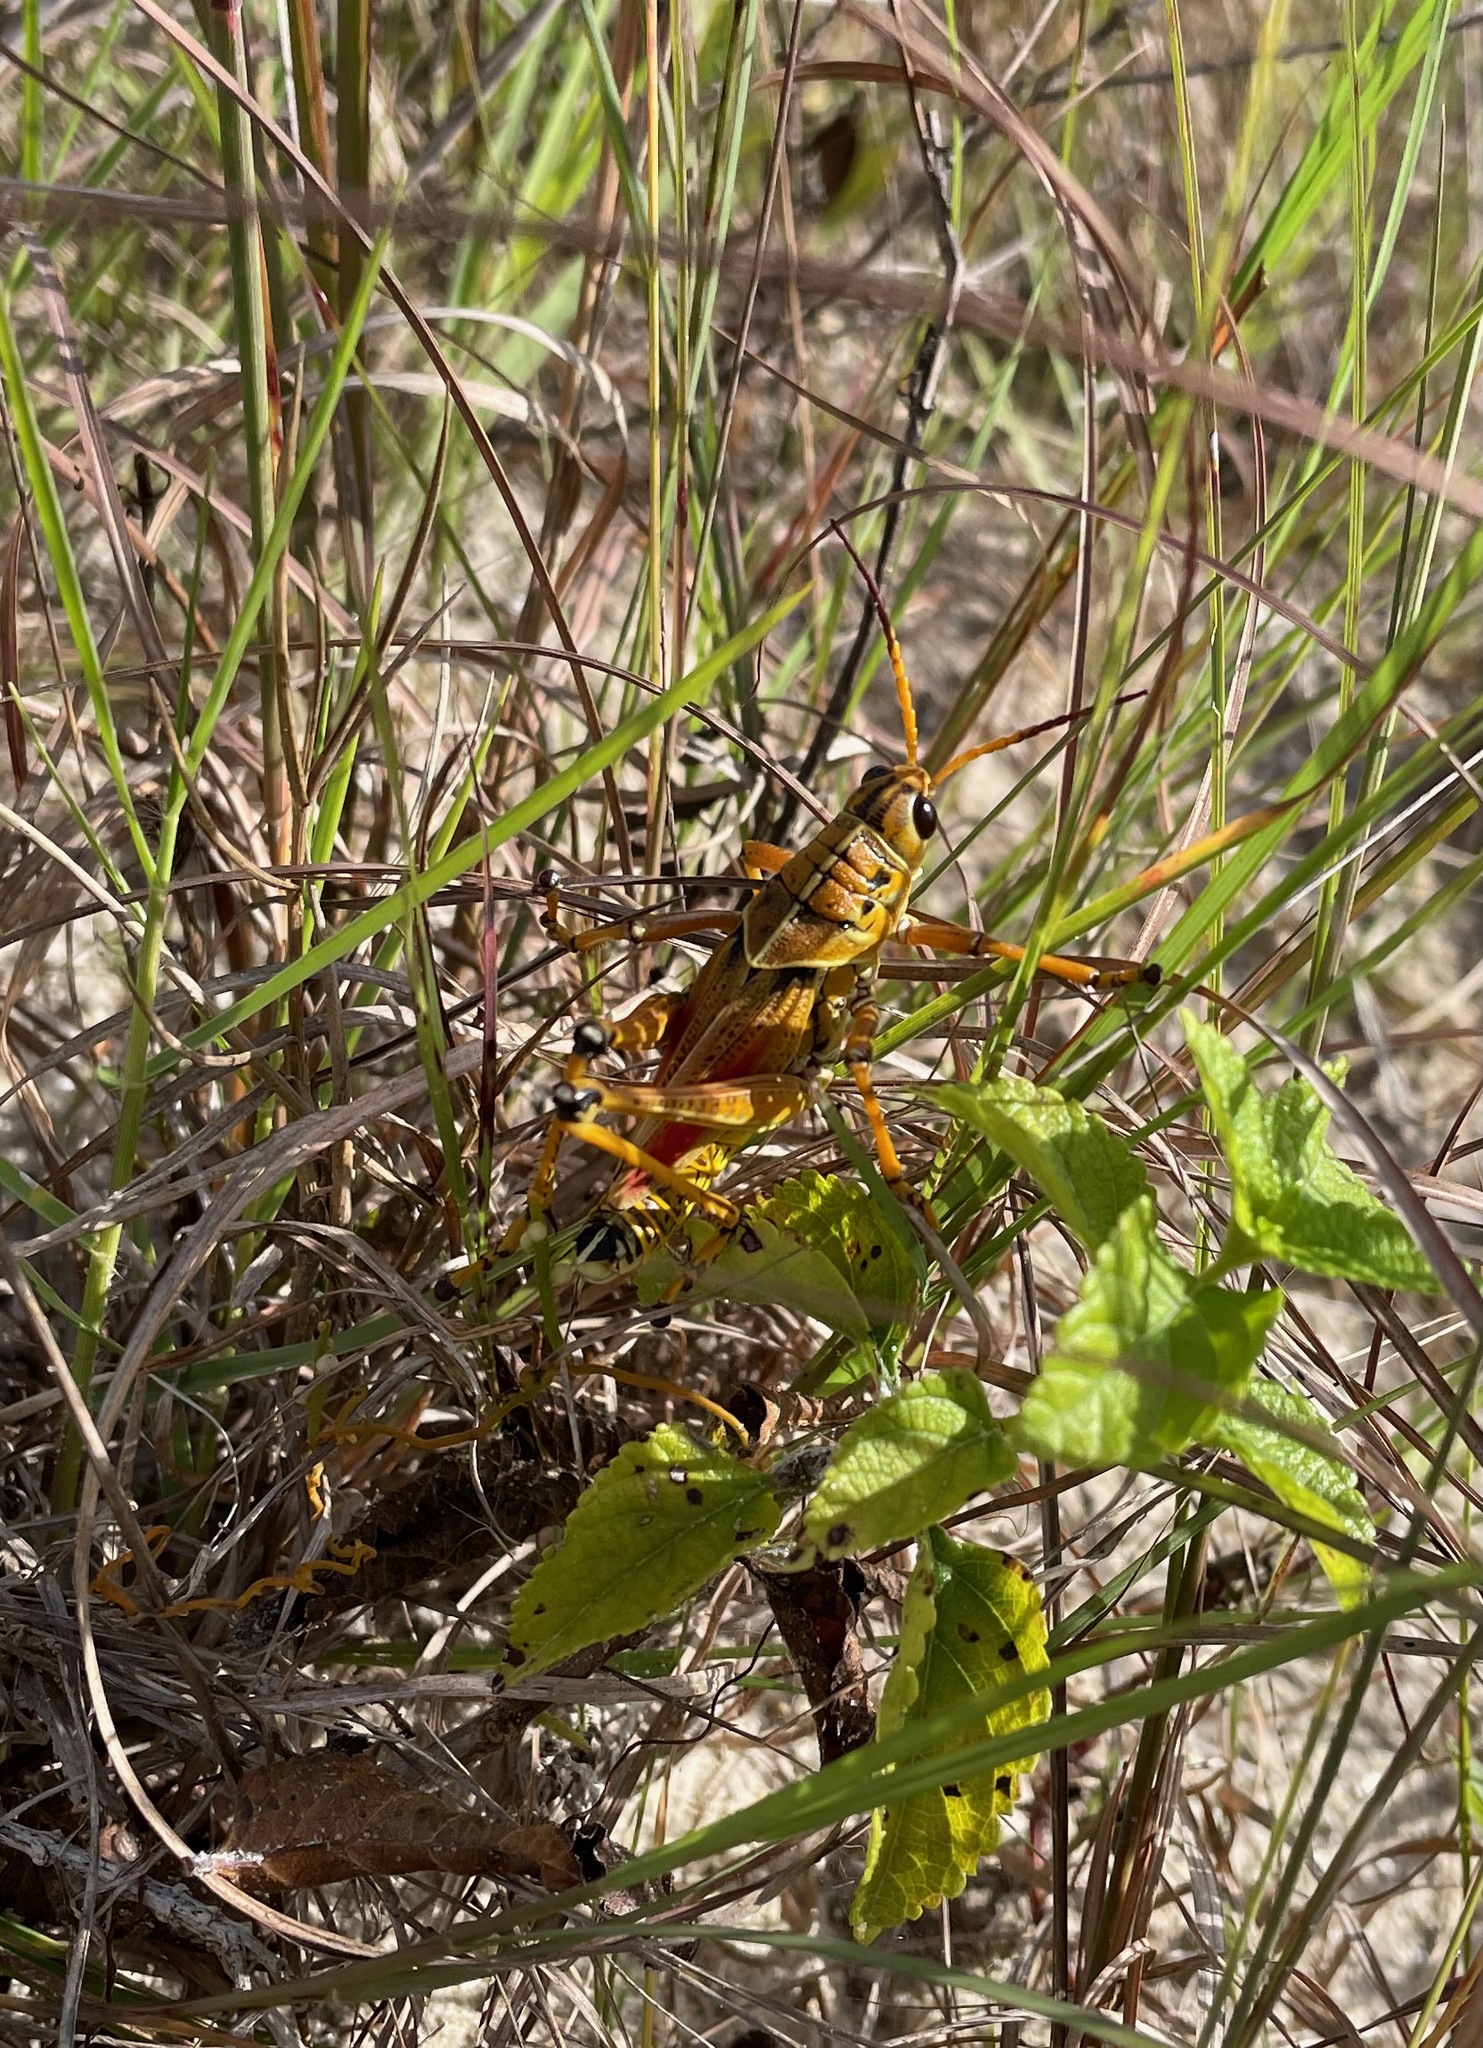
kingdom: Animalia
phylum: Arthropoda
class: Insecta
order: Orthoptera
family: Romaleidae
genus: Romalea
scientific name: Romalea microptera
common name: Eastern lubber grasshopper
